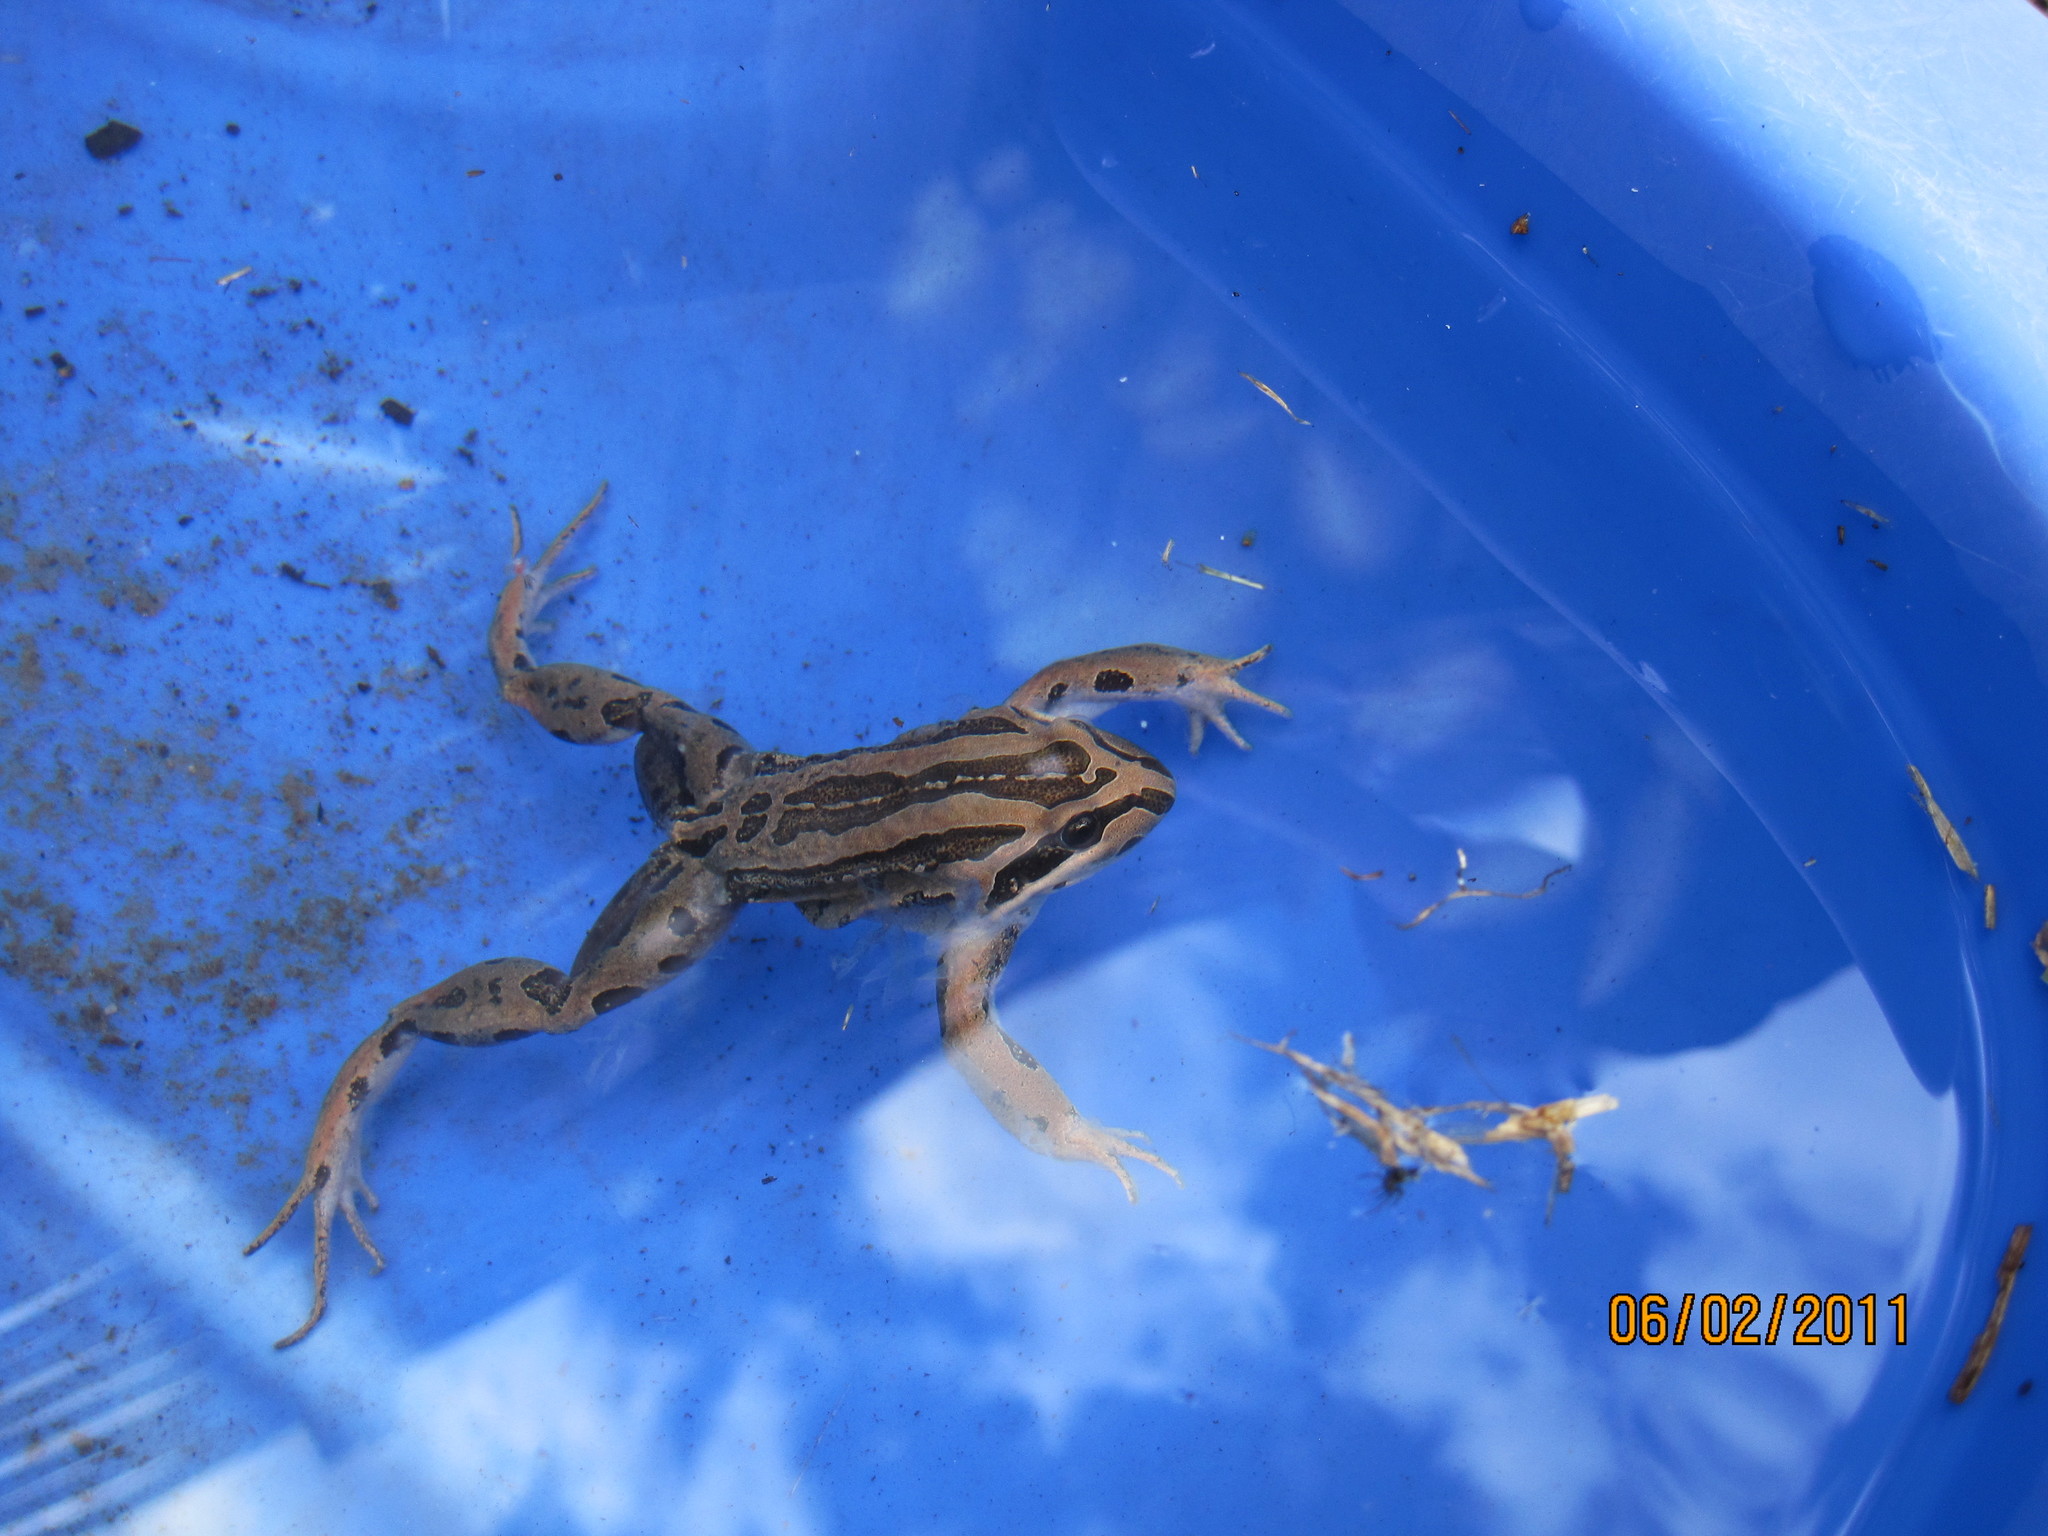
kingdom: Animalia
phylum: Chordata
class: Amphibia
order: Anura
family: Limnodynastidae
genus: Limnodynastes
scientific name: Limnodynastes peronii
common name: Brown frog
